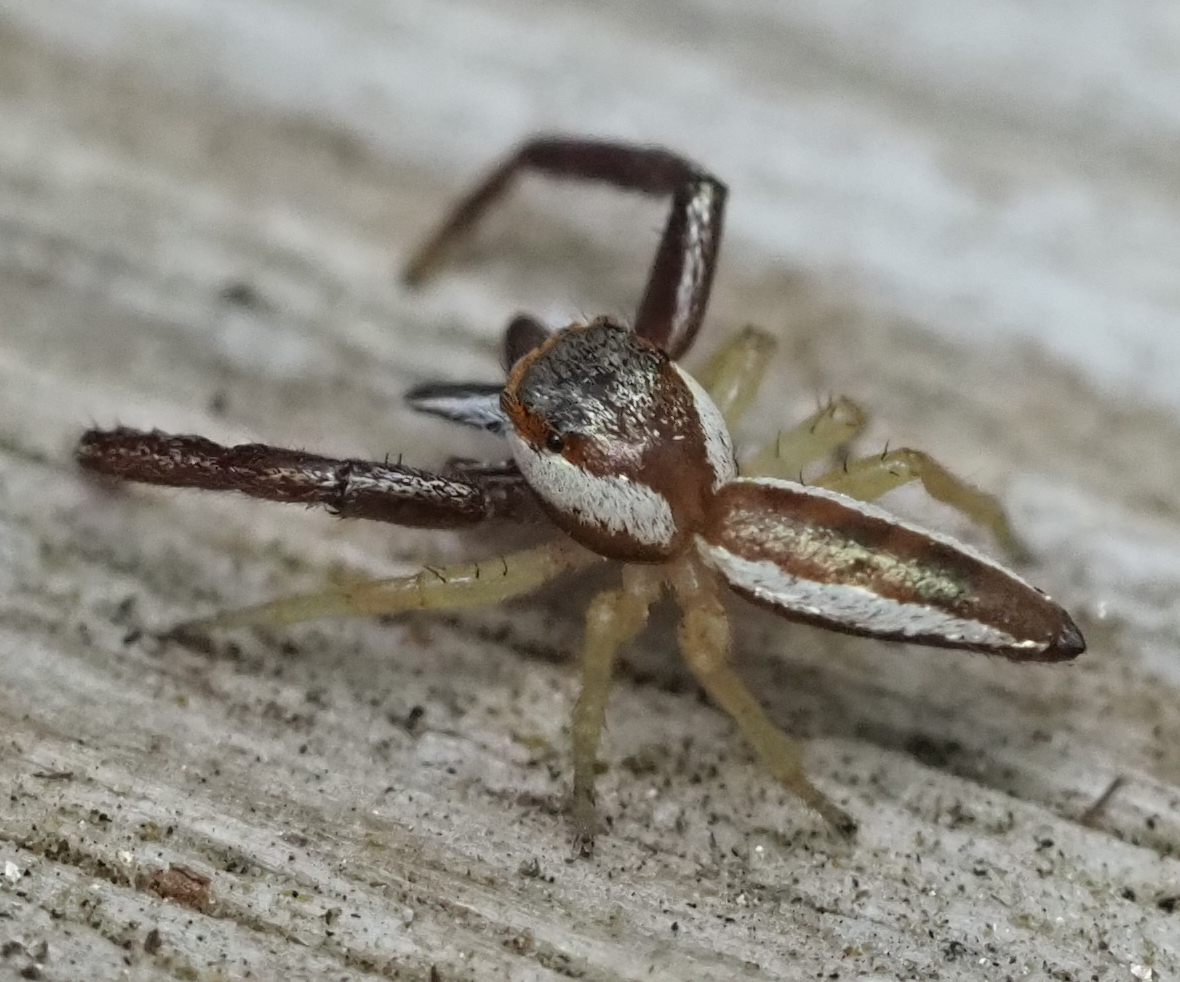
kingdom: Animalia
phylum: Arthropoda
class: Arachnida
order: Araneae
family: Salticidae
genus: Hentzia
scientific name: Hentzia palmarum
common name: Common hentz jumping spider
